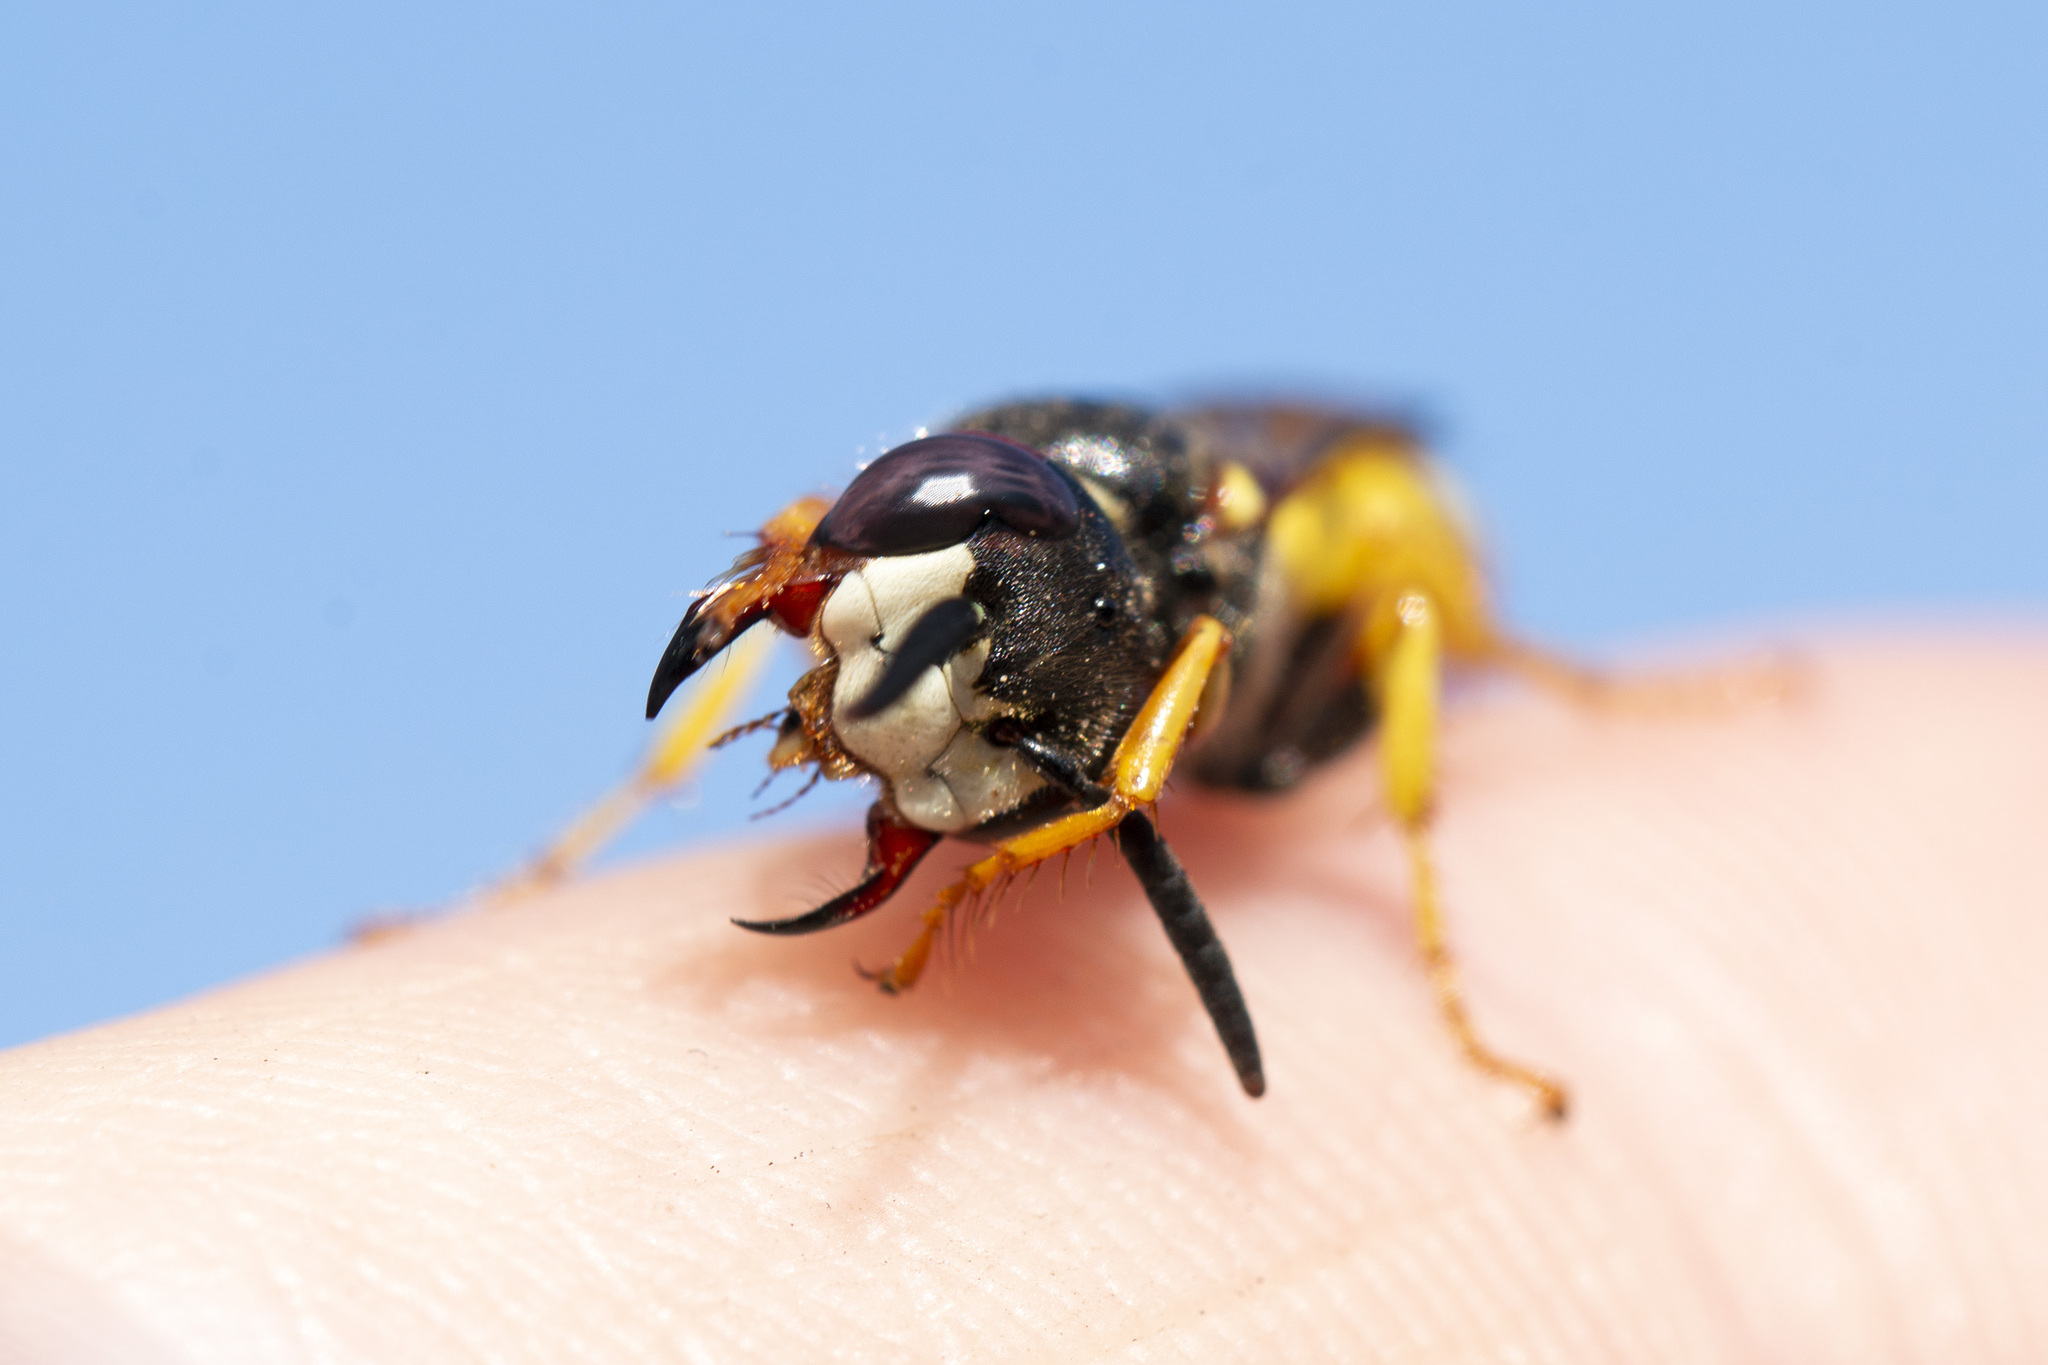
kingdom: Animalia
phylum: Arthropoda
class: Insecta
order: Hymenoptera
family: Crabronidae
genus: Philanthus
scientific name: Philanthus triangulum
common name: Bee wolf
